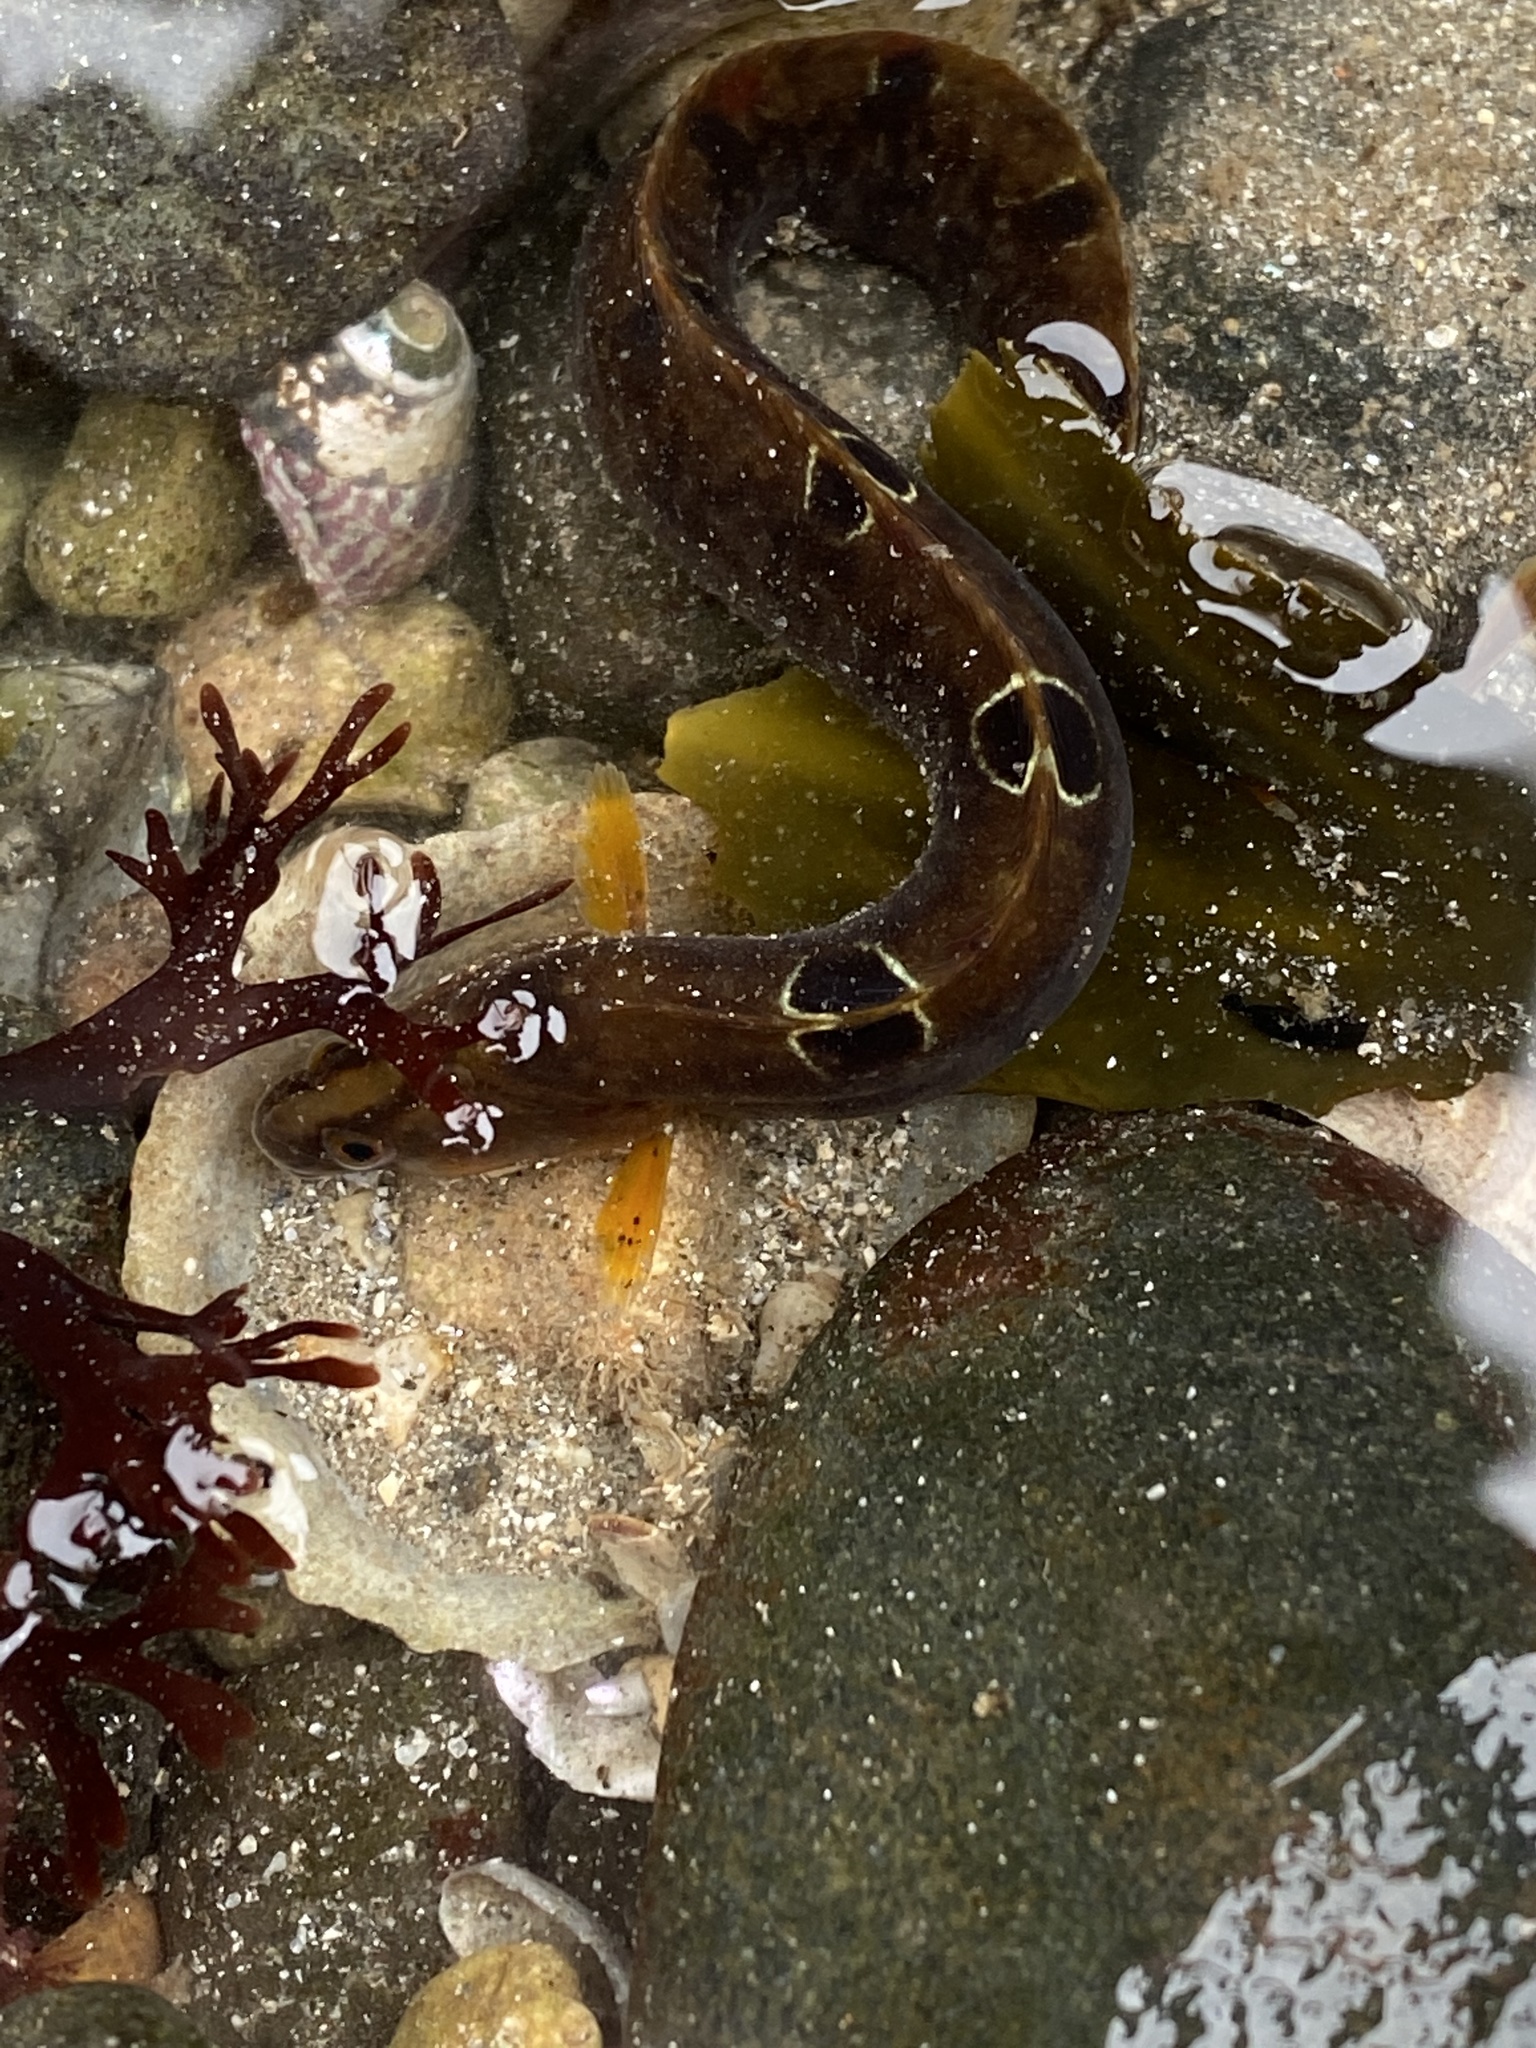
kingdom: Animalia
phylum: Chordata
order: Perciformes
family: Pholidae
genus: Pholis
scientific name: Pholis gunnellus
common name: Butterfish
